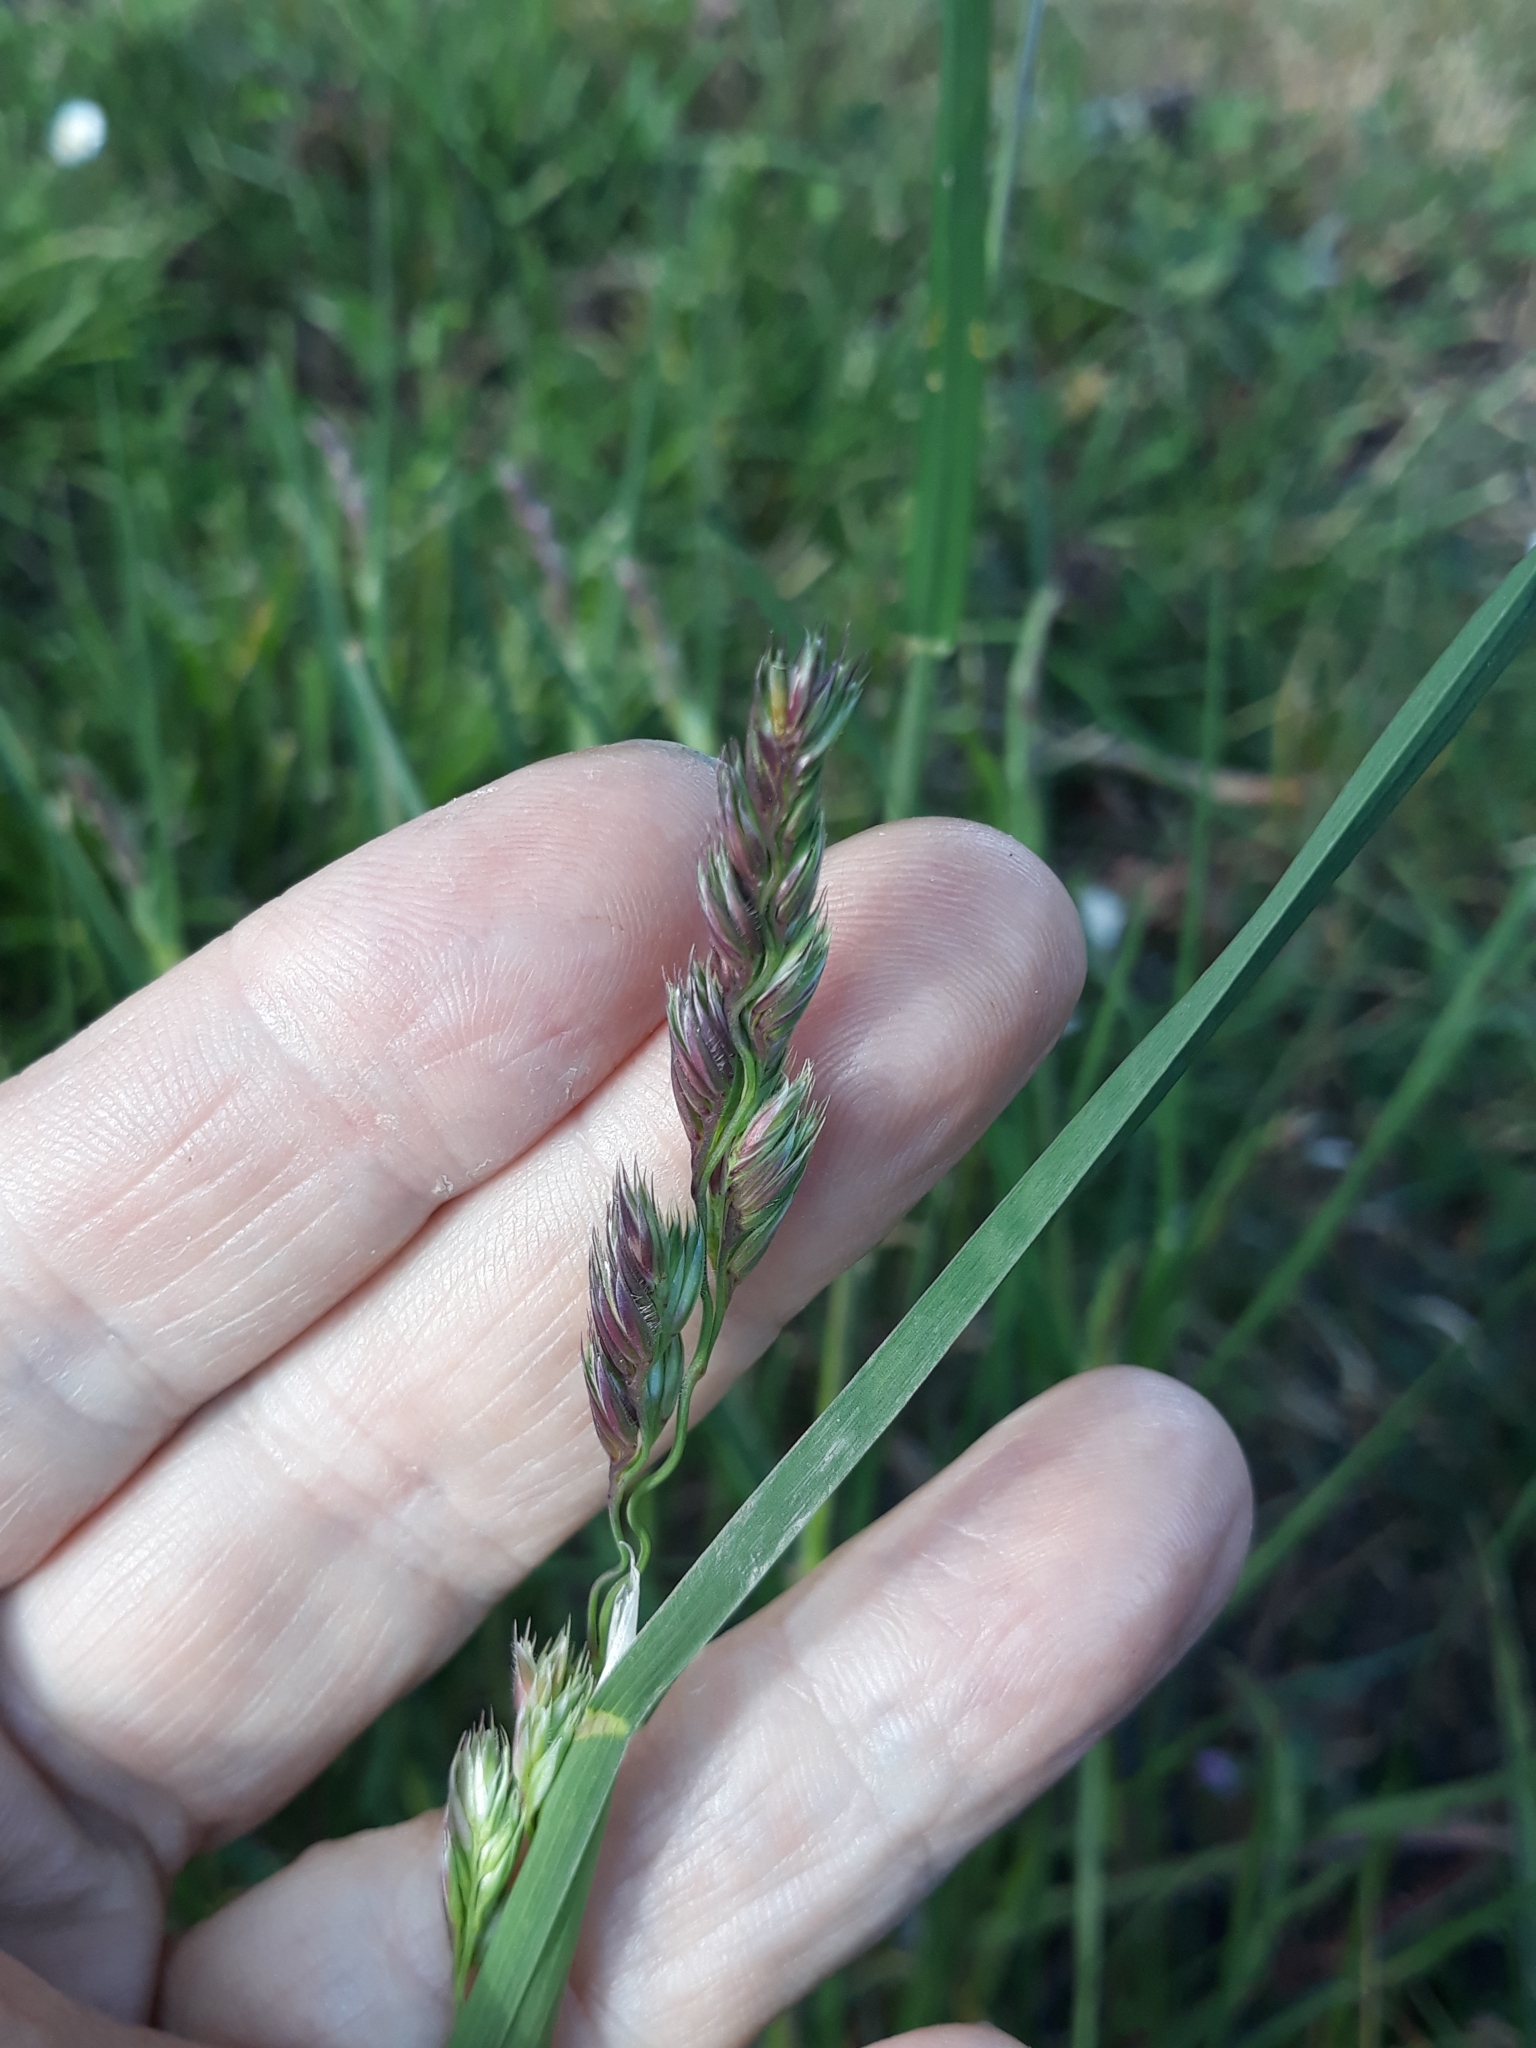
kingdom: Plantae
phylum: Tracheophyta
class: Liliopsida
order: Poales
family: Poaceae
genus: Dactylis
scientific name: Dactylis glomerata
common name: Orchardgrass
